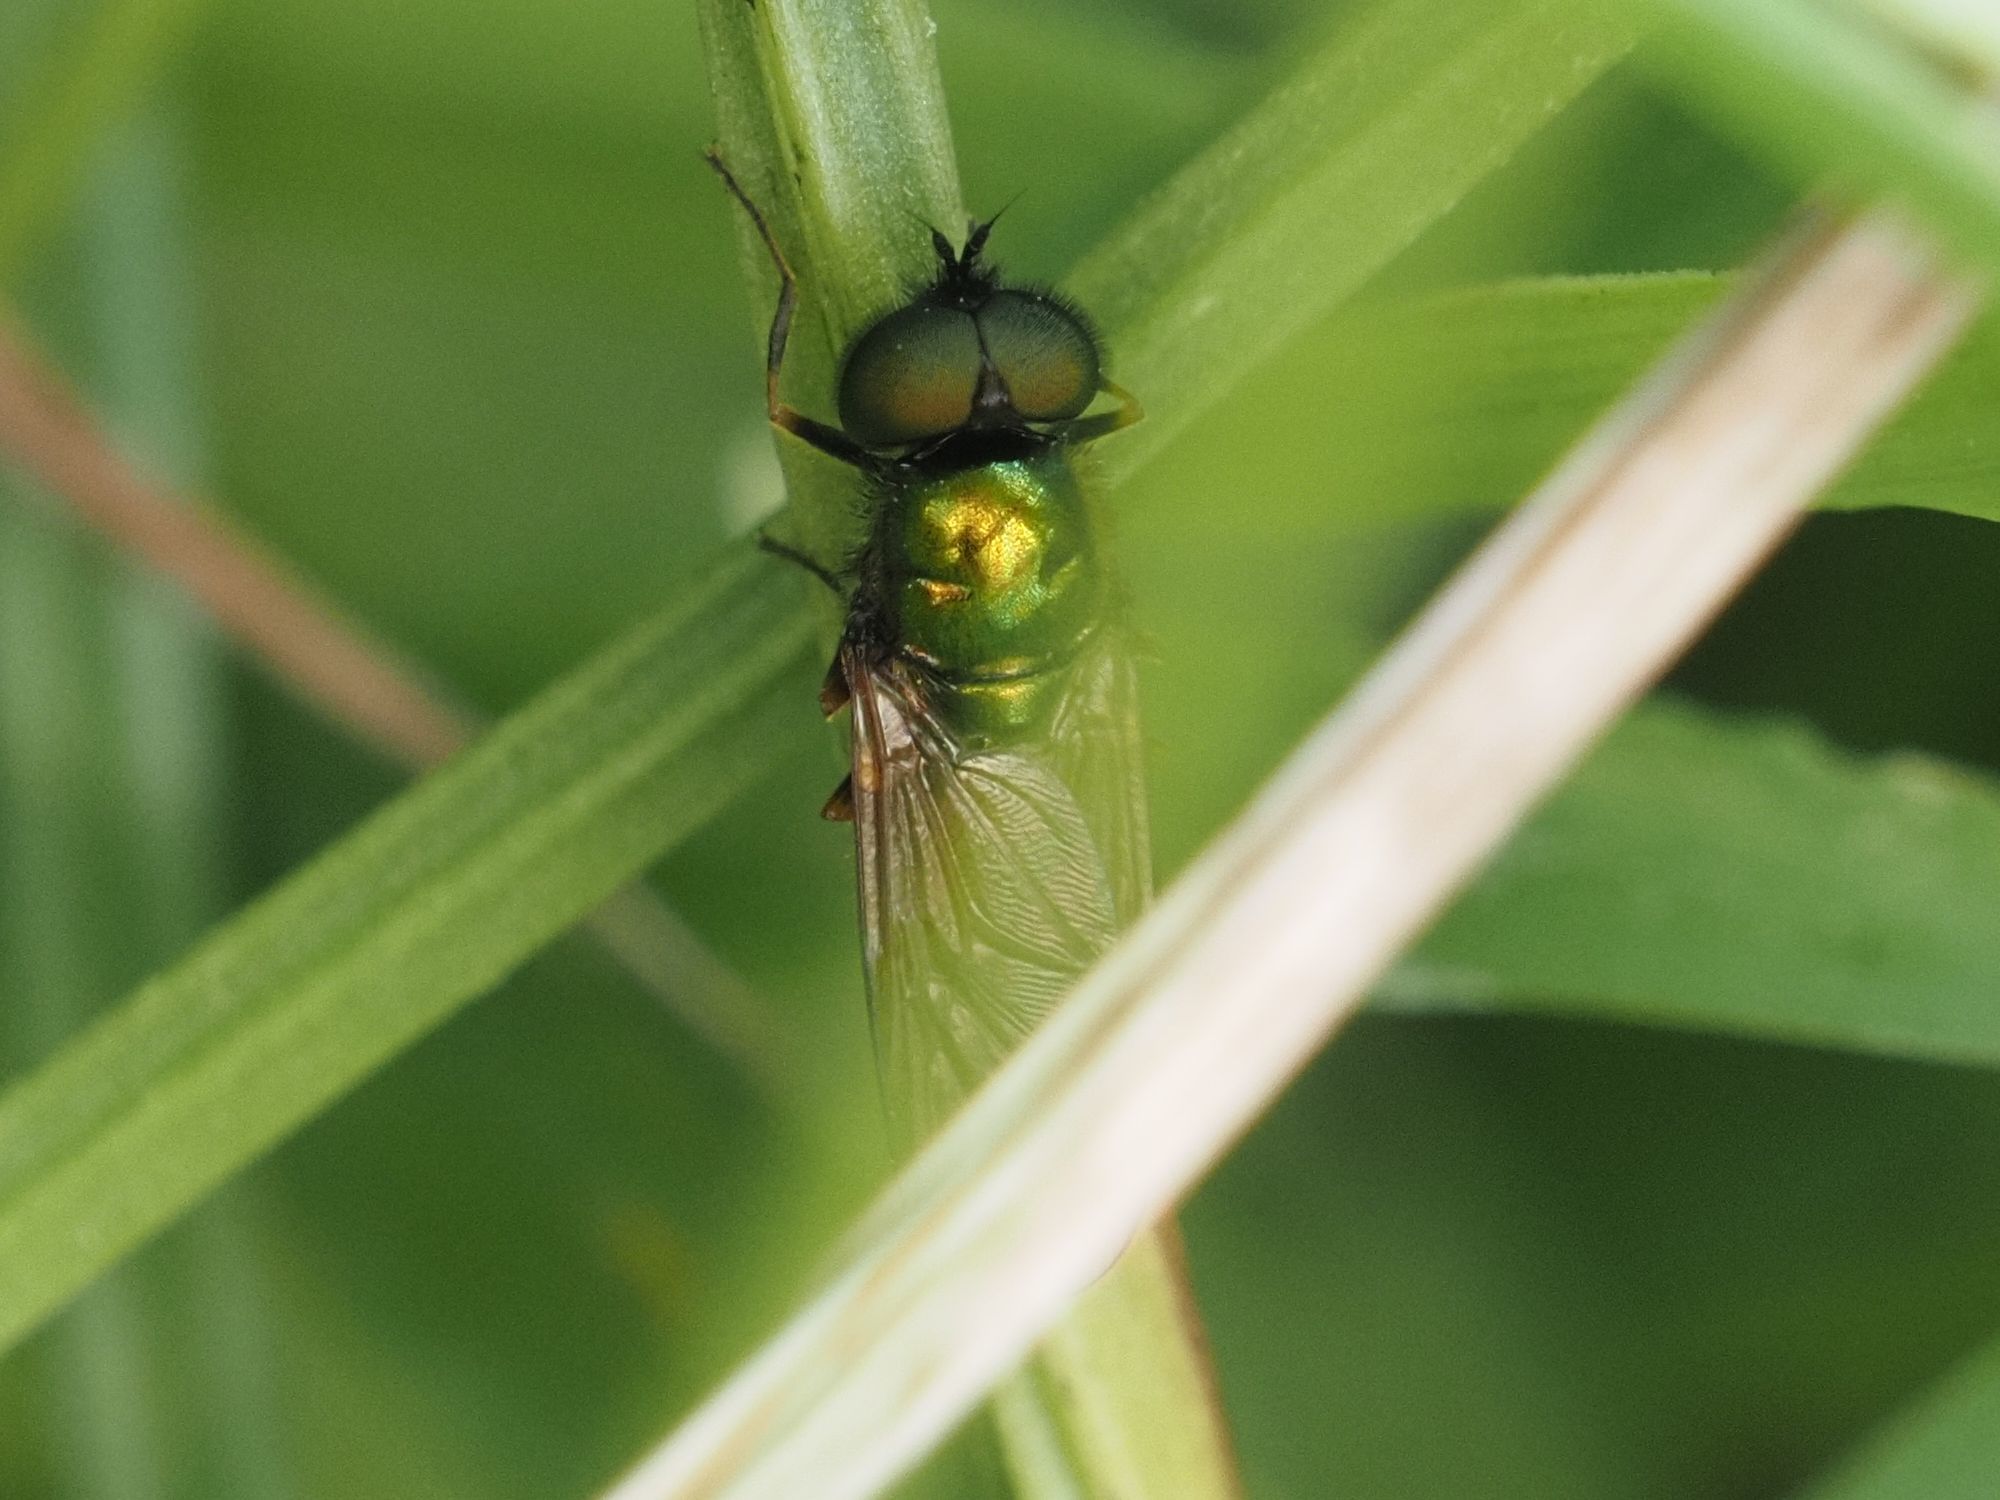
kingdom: Animalia
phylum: Arthropoda
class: Insecta
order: Diptera
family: Stratiomyidae
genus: Chloromyia
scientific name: Chloromyia formosa
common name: Soldier fly
